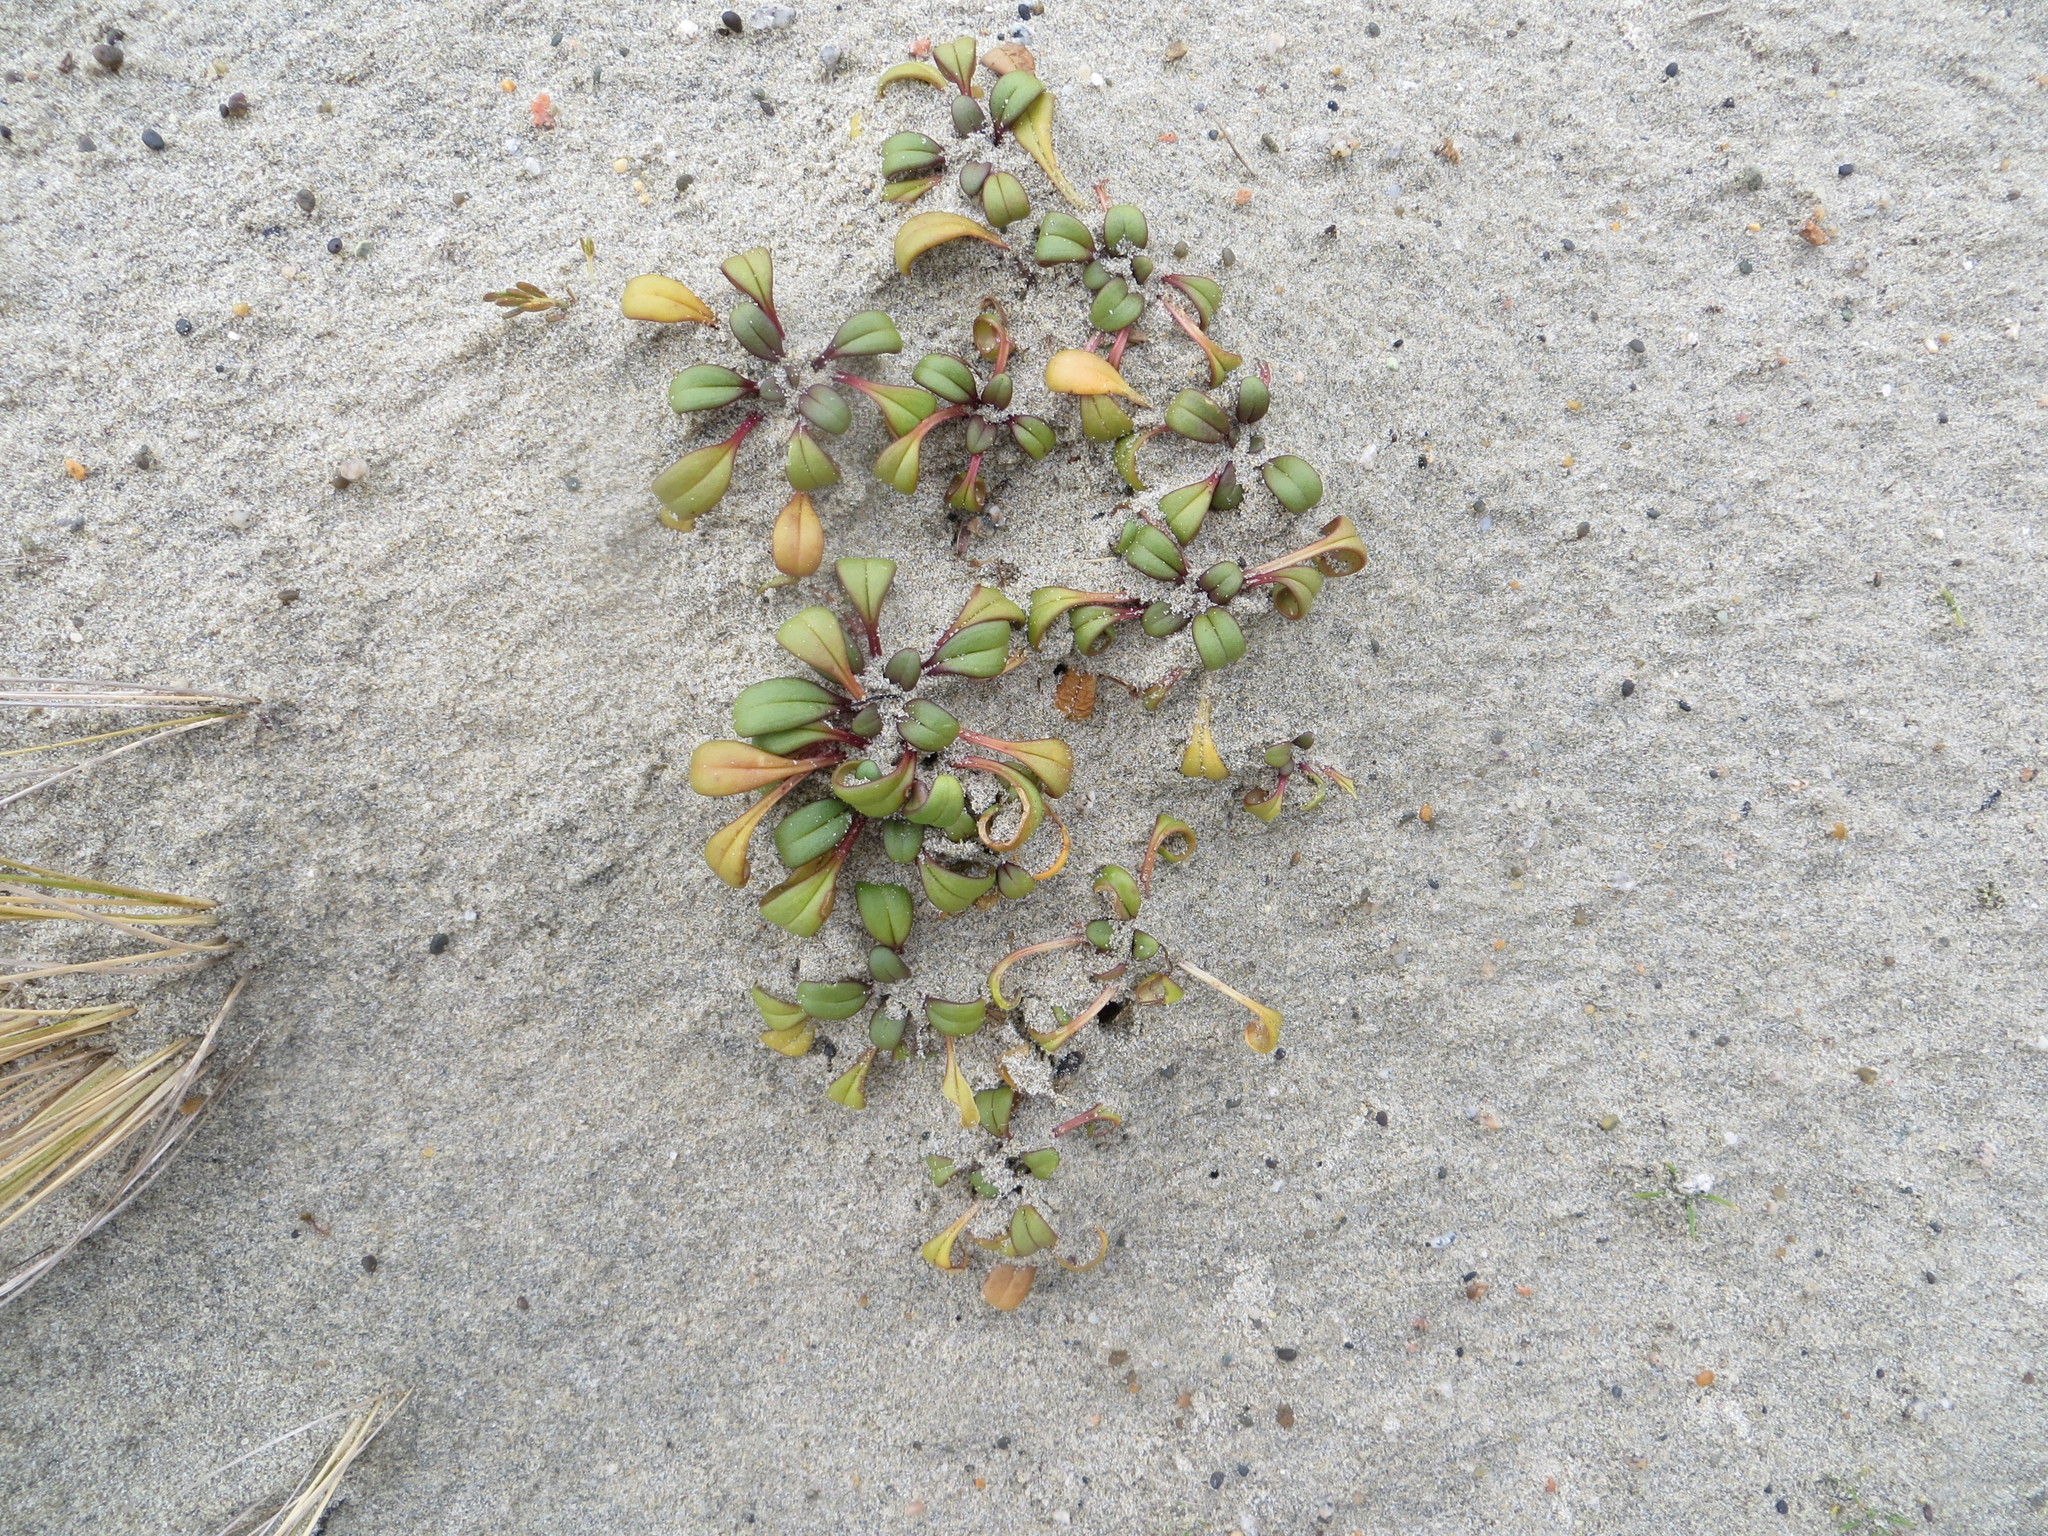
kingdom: Plantae
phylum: Tracheophyta
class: Magnoliopsida
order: Gentianales
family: Gentianaceae
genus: Gentianella
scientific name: Gentianella saxosa
